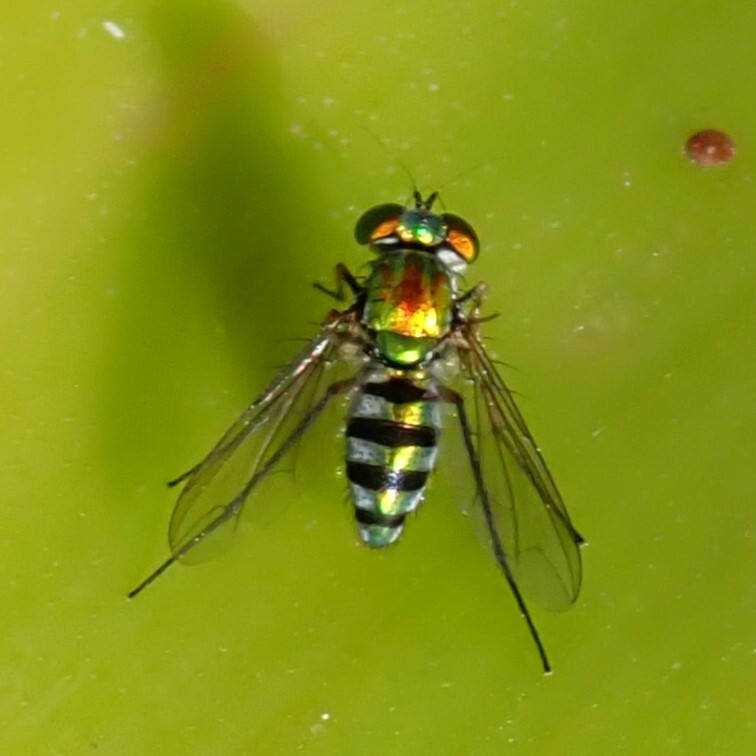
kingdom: Animalia
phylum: Arthropoda
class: Insecta
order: Diptera
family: Dolichopodidae
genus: Condylostylus
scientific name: Condylostylus pruinosus
